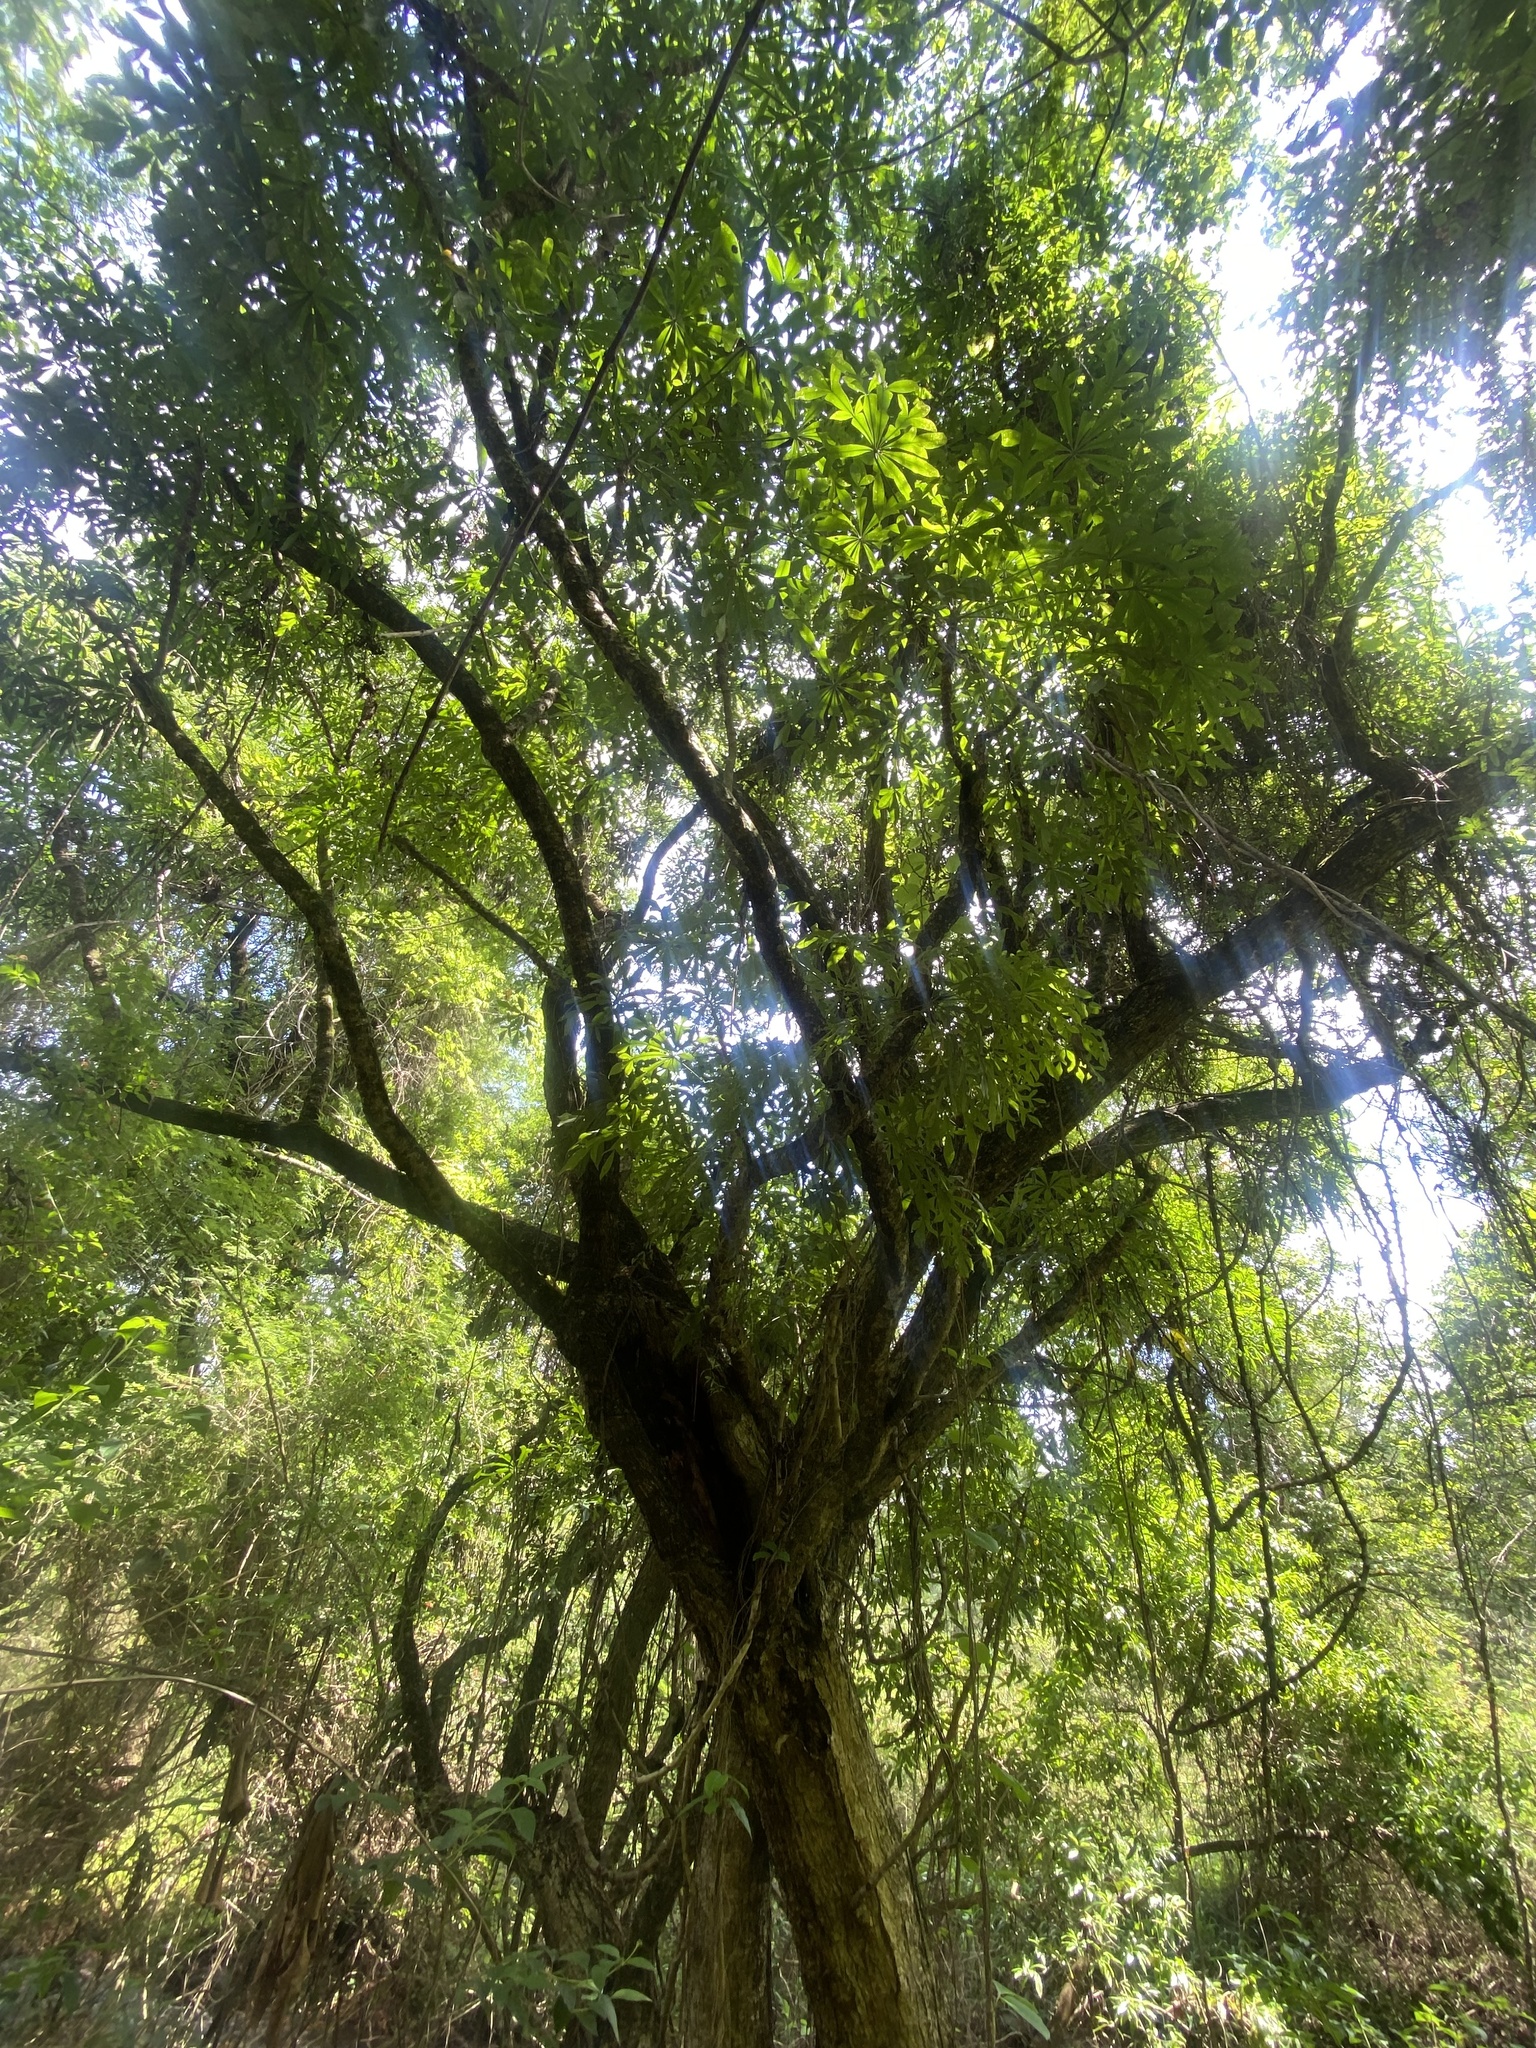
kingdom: Plantae
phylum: Tracheophyta
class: Magnoliopsida
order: Apiales
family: Araliaceae
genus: Cussonia
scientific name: Cussonia spicata
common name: Common cabbagetree
